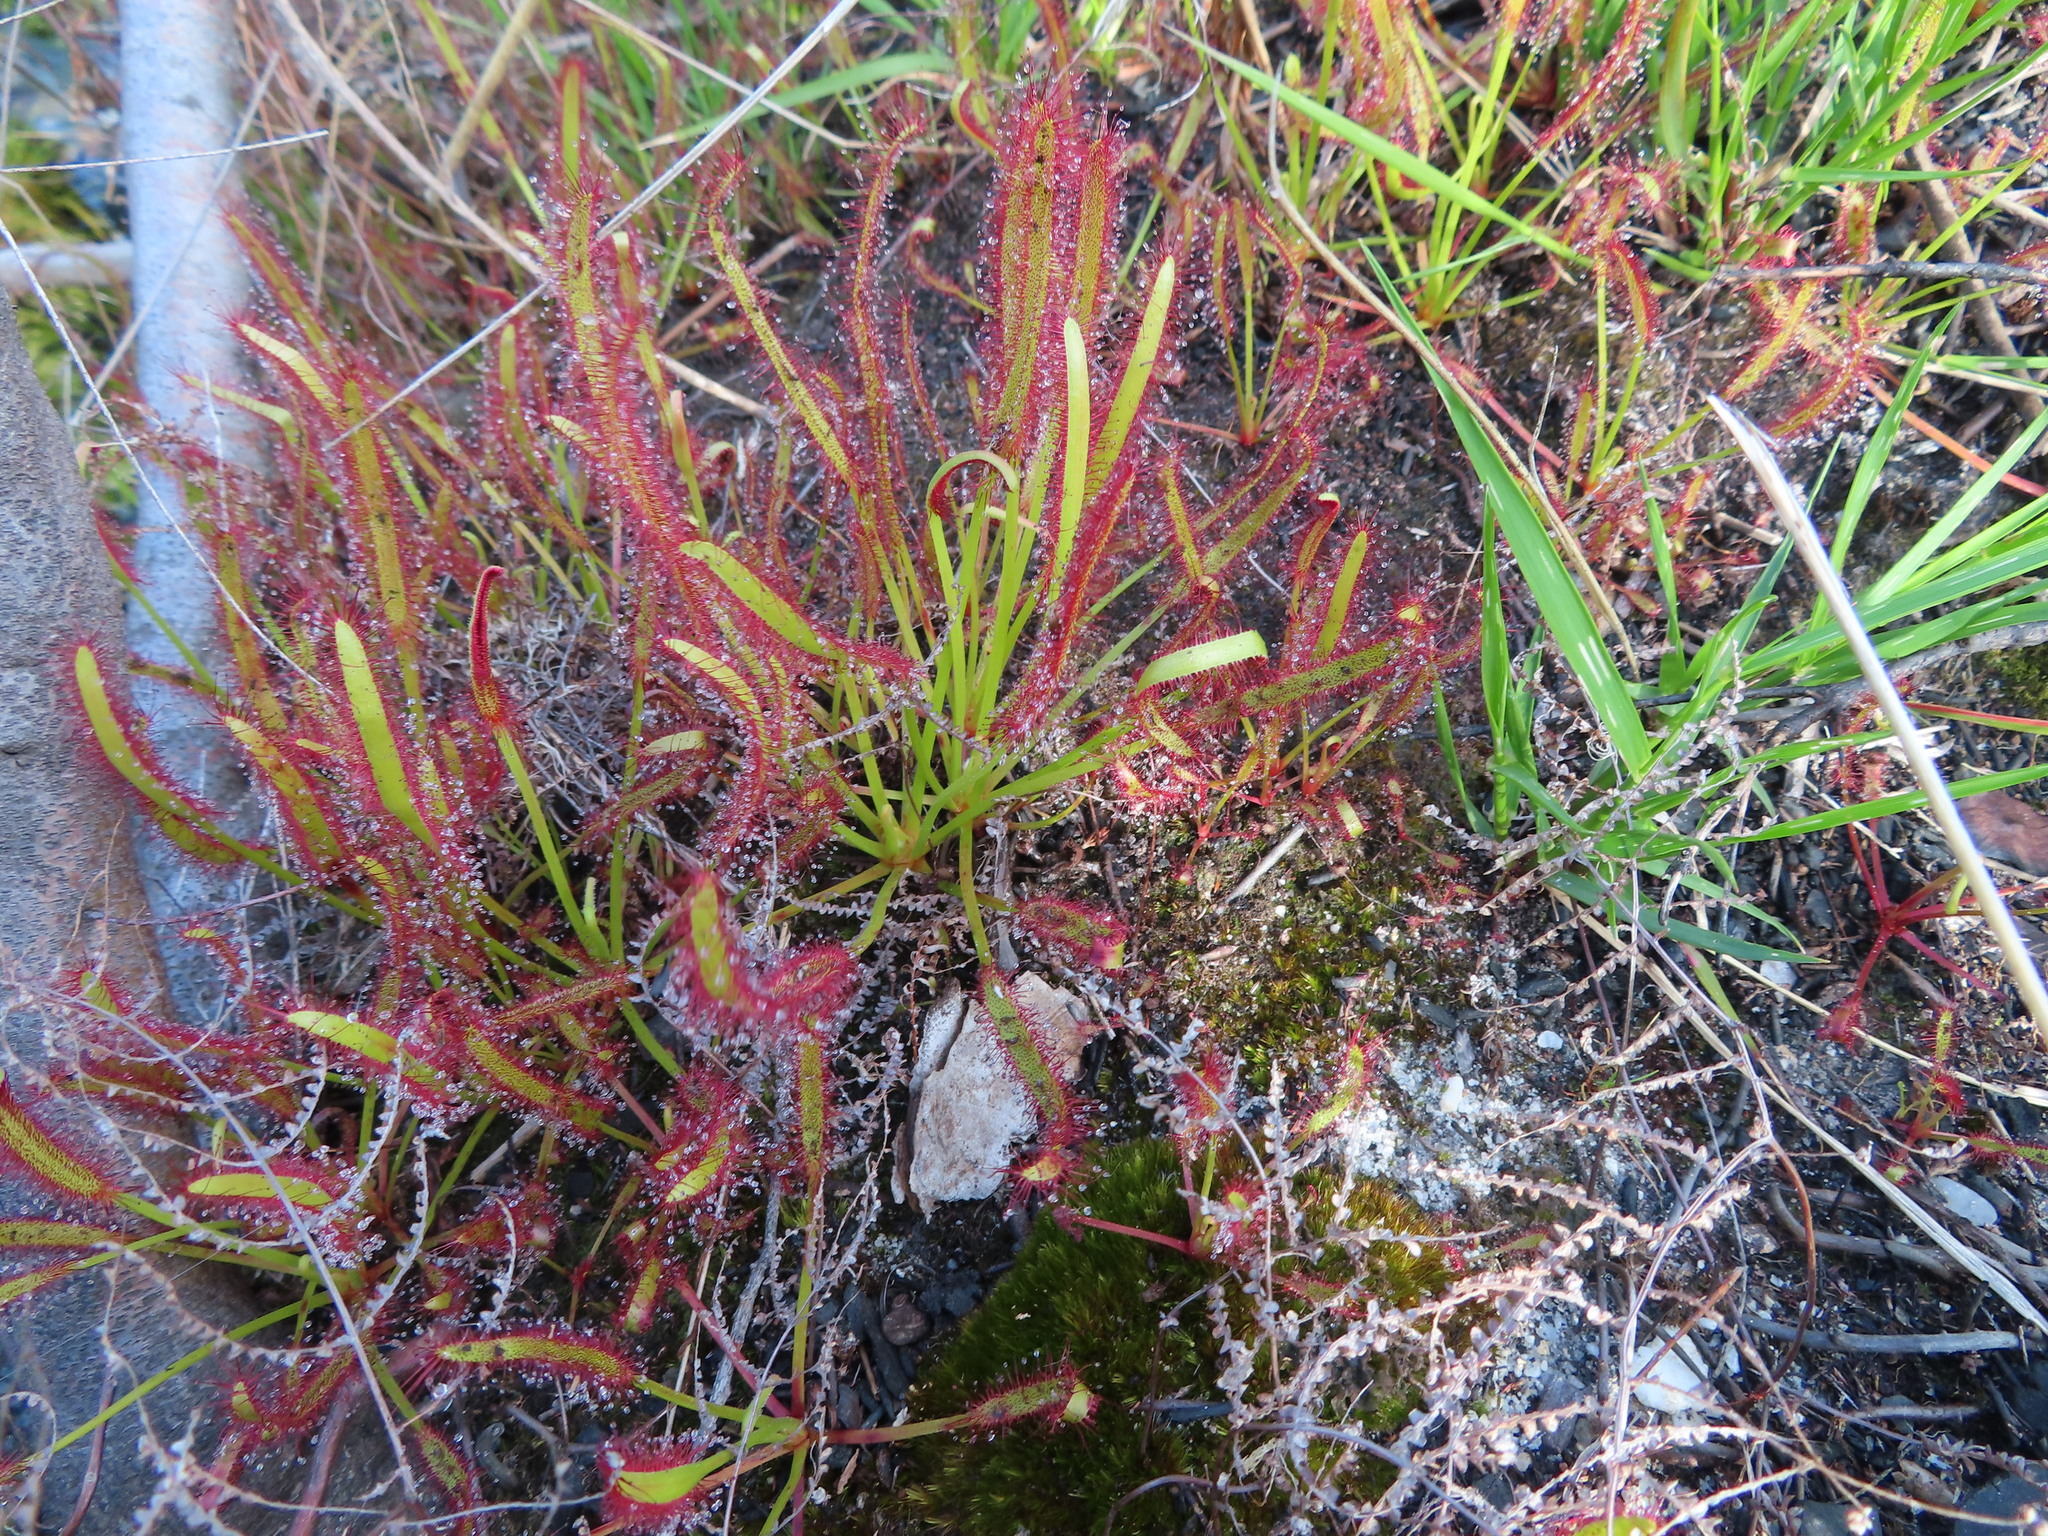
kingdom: Plantae
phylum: Tracheophyta
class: Magnoliopsida
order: Caryophyllales
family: Droseraceae
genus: Drosera
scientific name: Drosera capensis
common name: Cape sundew
